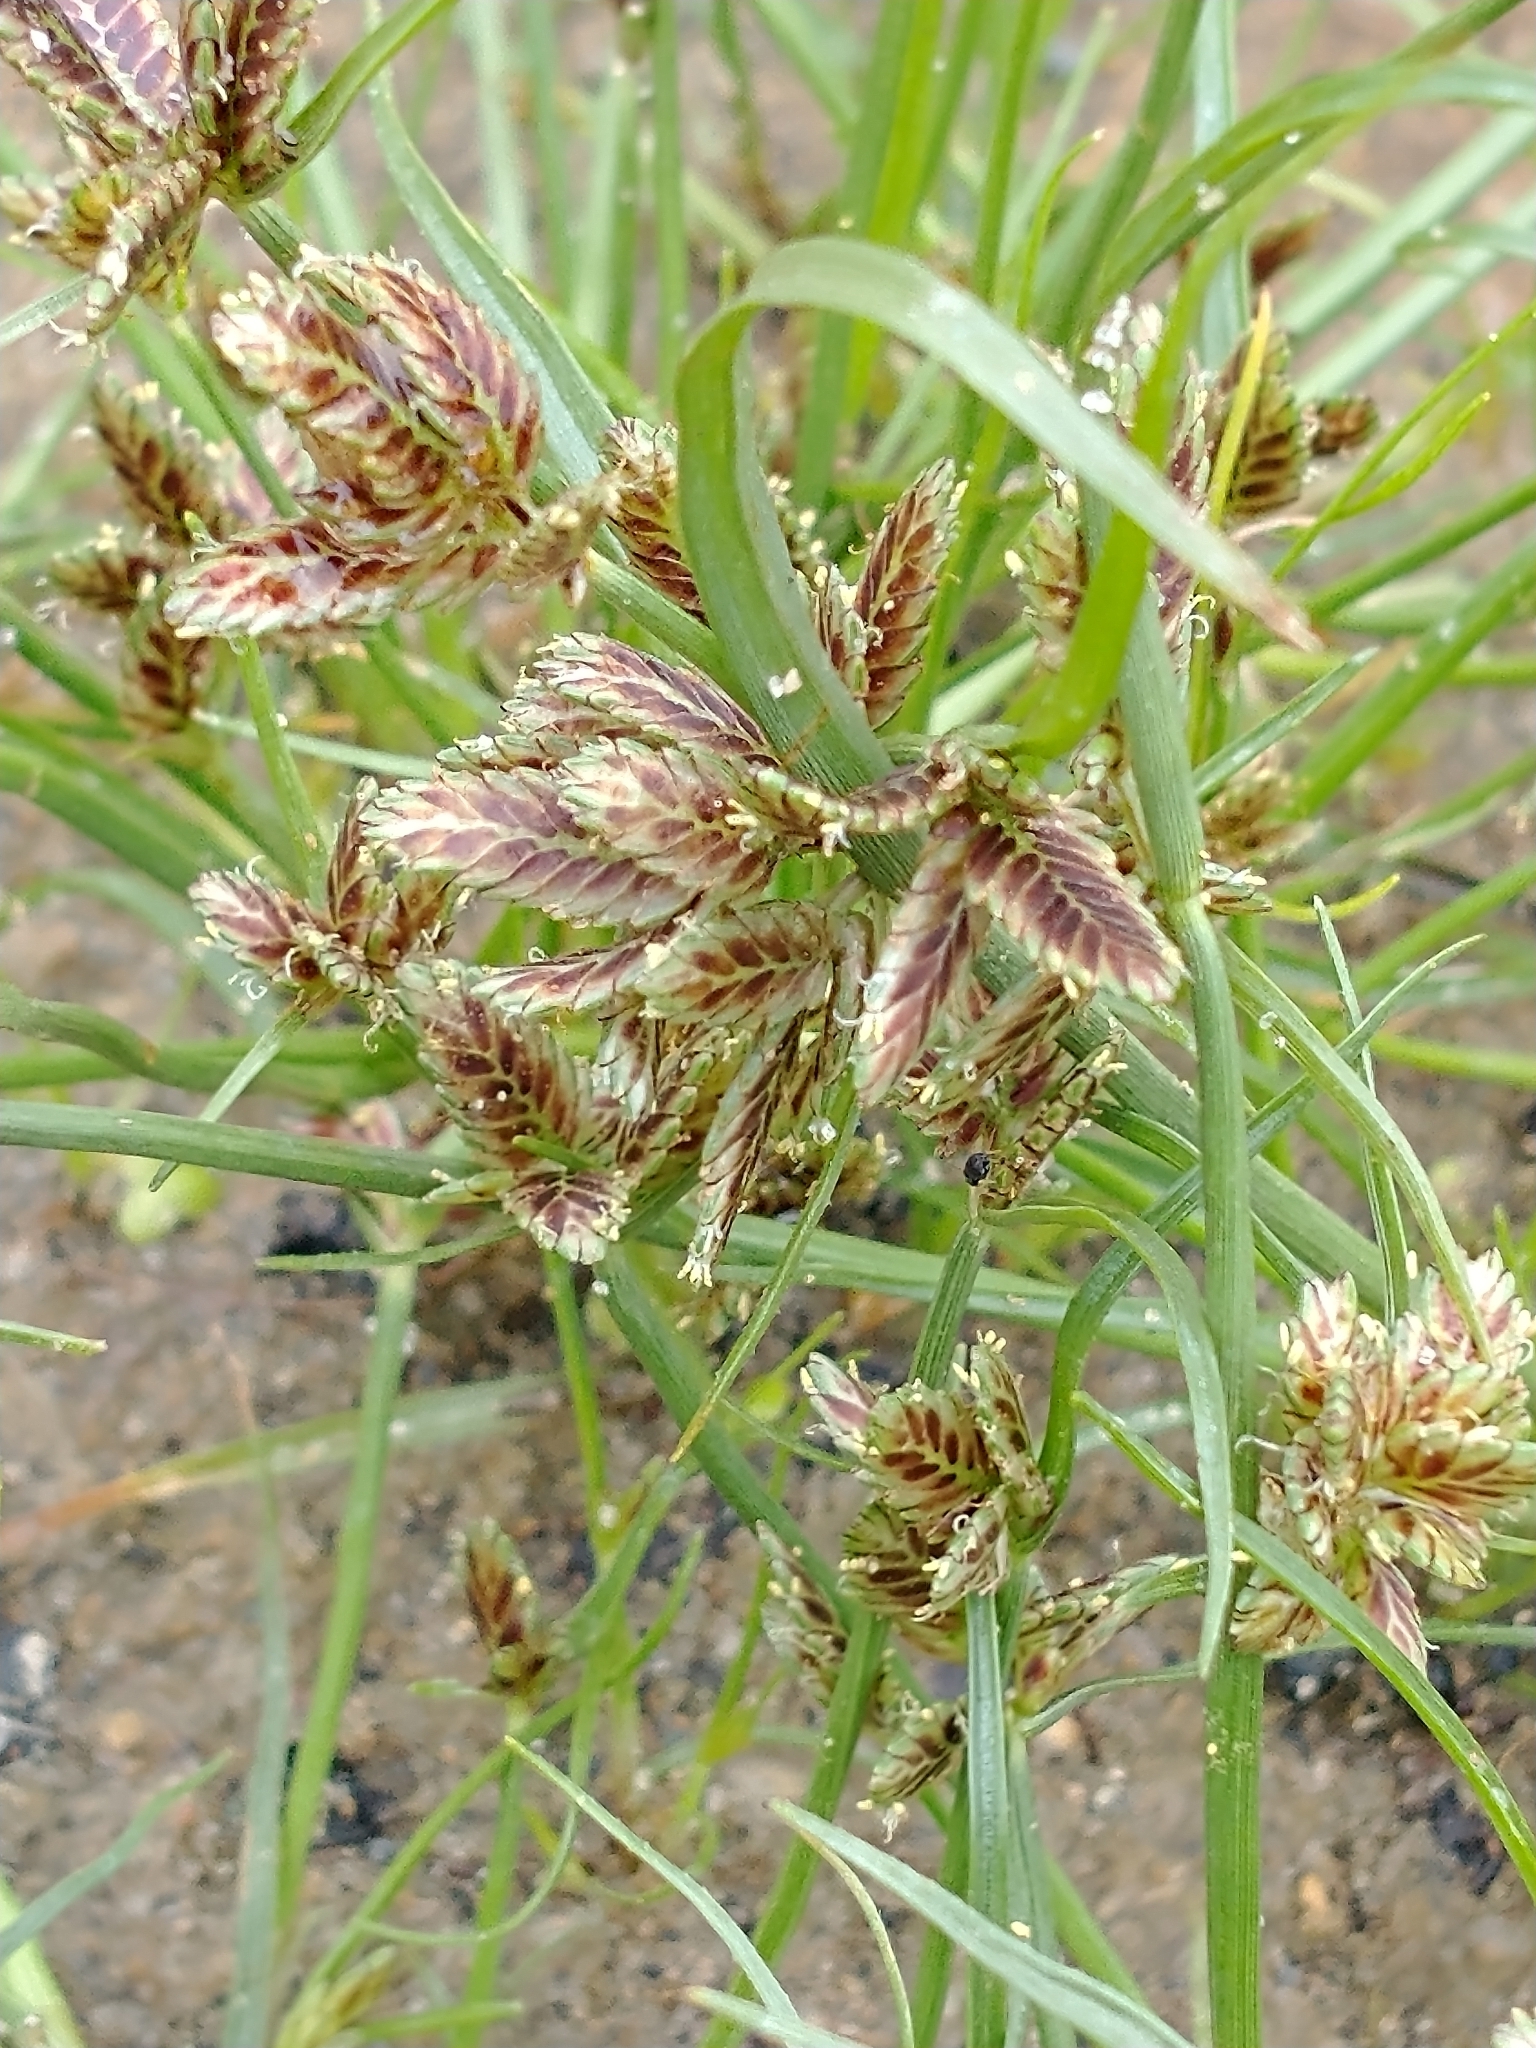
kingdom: Plantae
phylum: Tracheophyta
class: Liliopsida
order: Poales
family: Cyperaceae
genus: Cyperus
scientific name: Cyperus bipartitus
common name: Brook flatsedge
